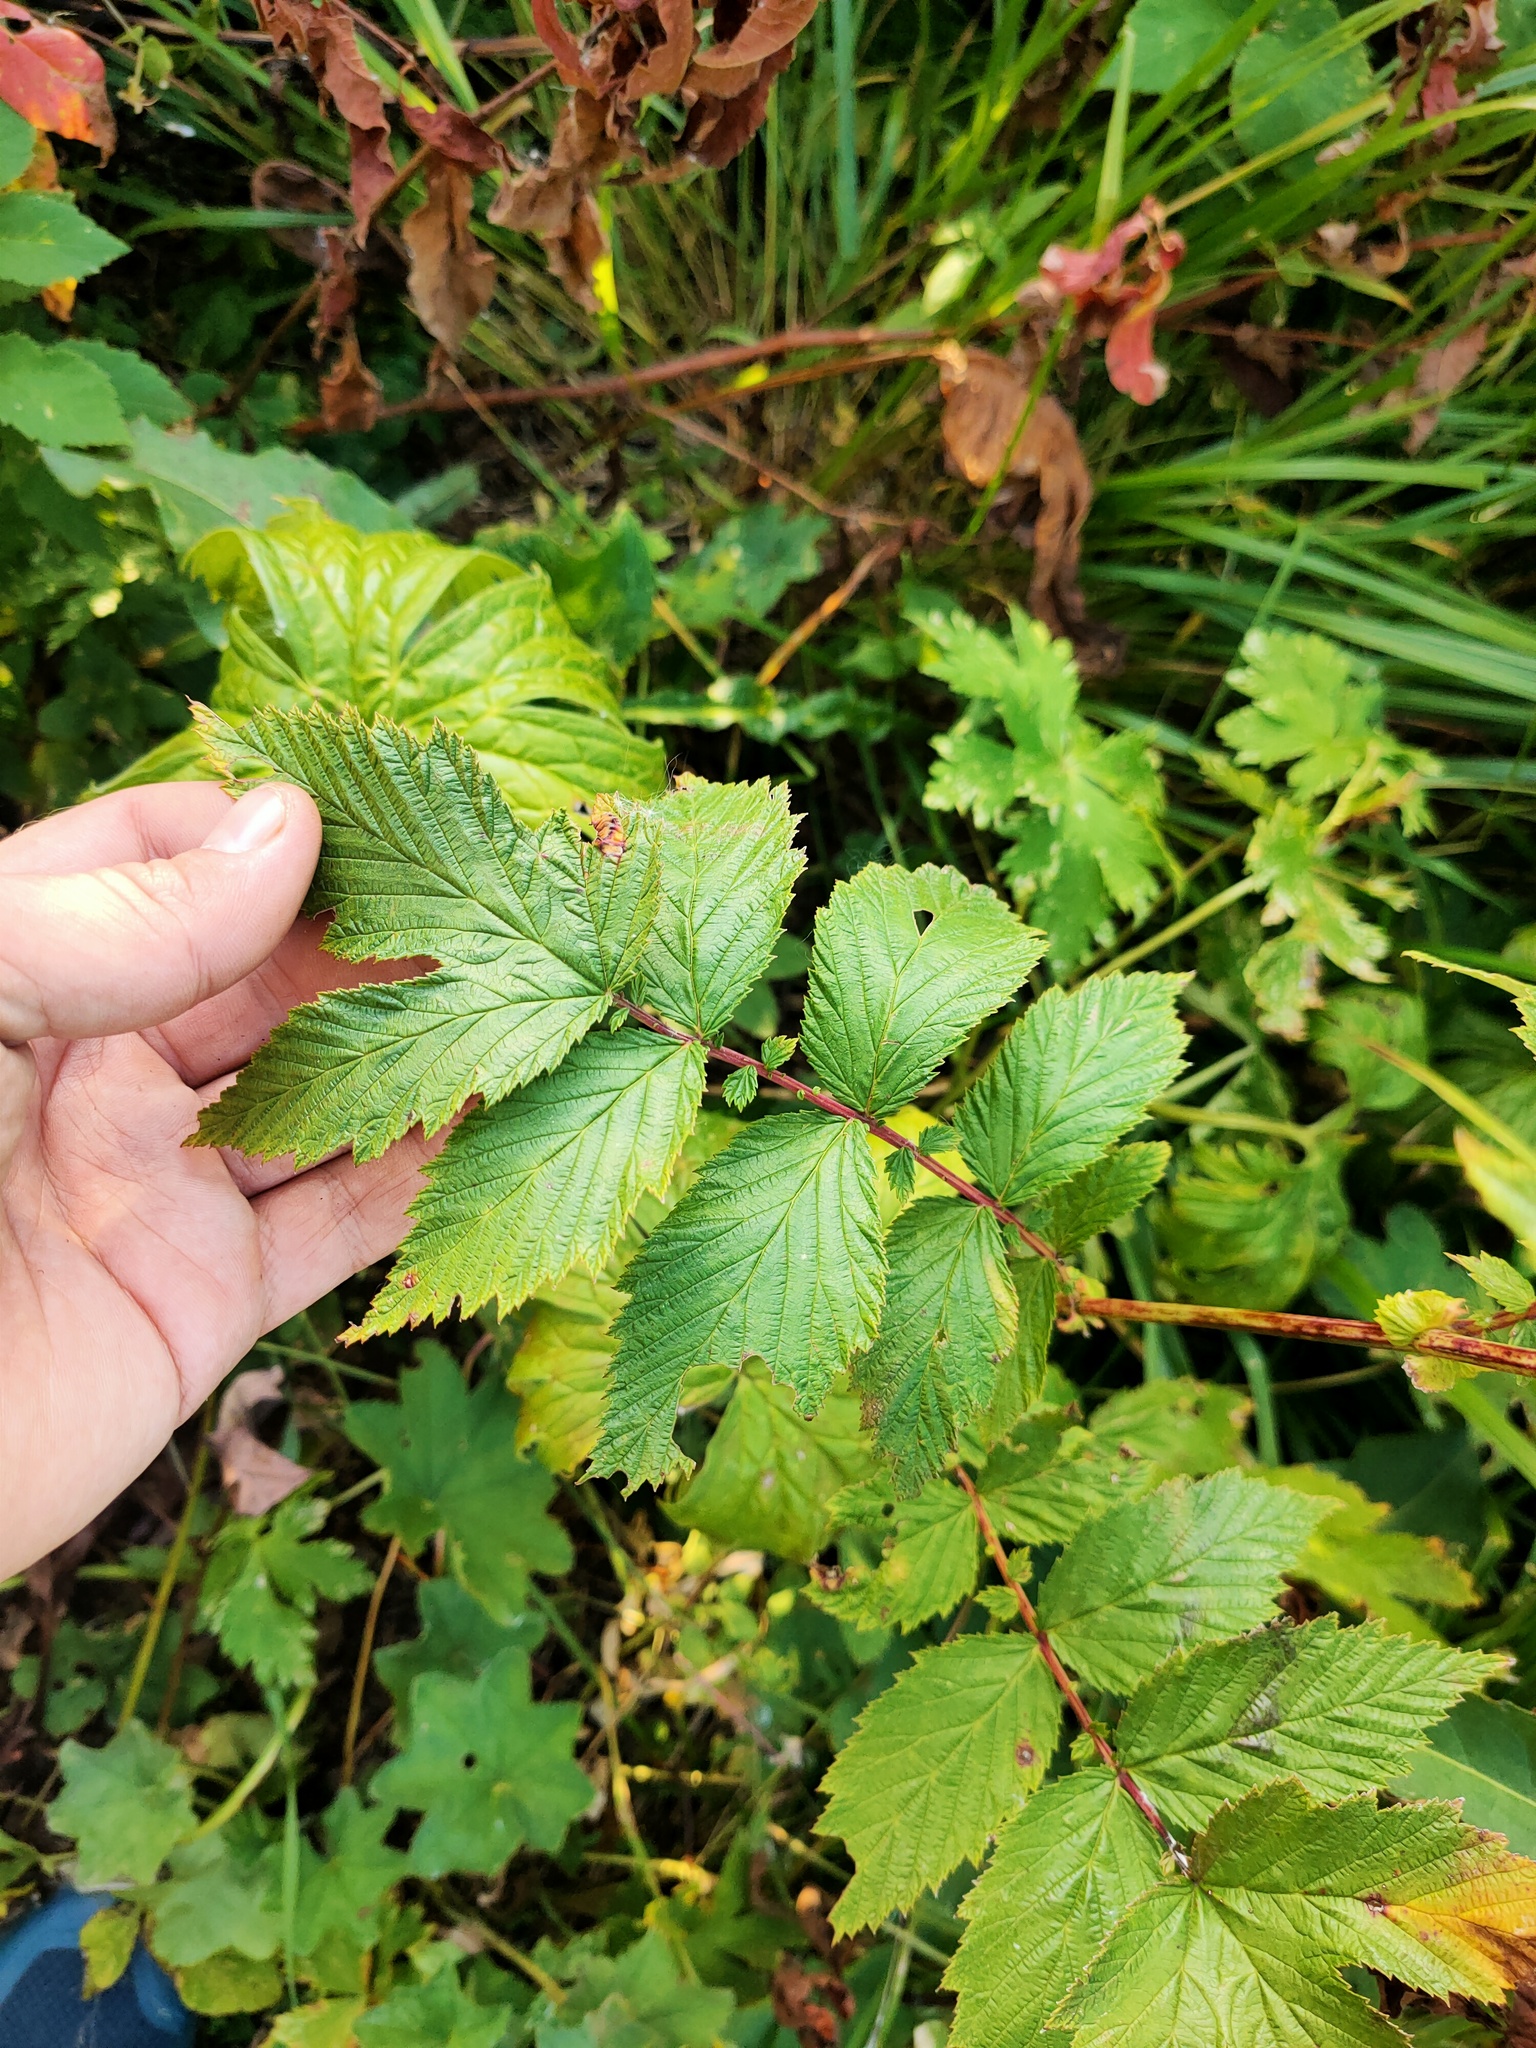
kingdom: Plantae
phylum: Tracheophyta
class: Magnoliopsida
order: Rosales
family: Rosaceae
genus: Filipendula
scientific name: Filipendula ulmaria
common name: Meadowsweet
